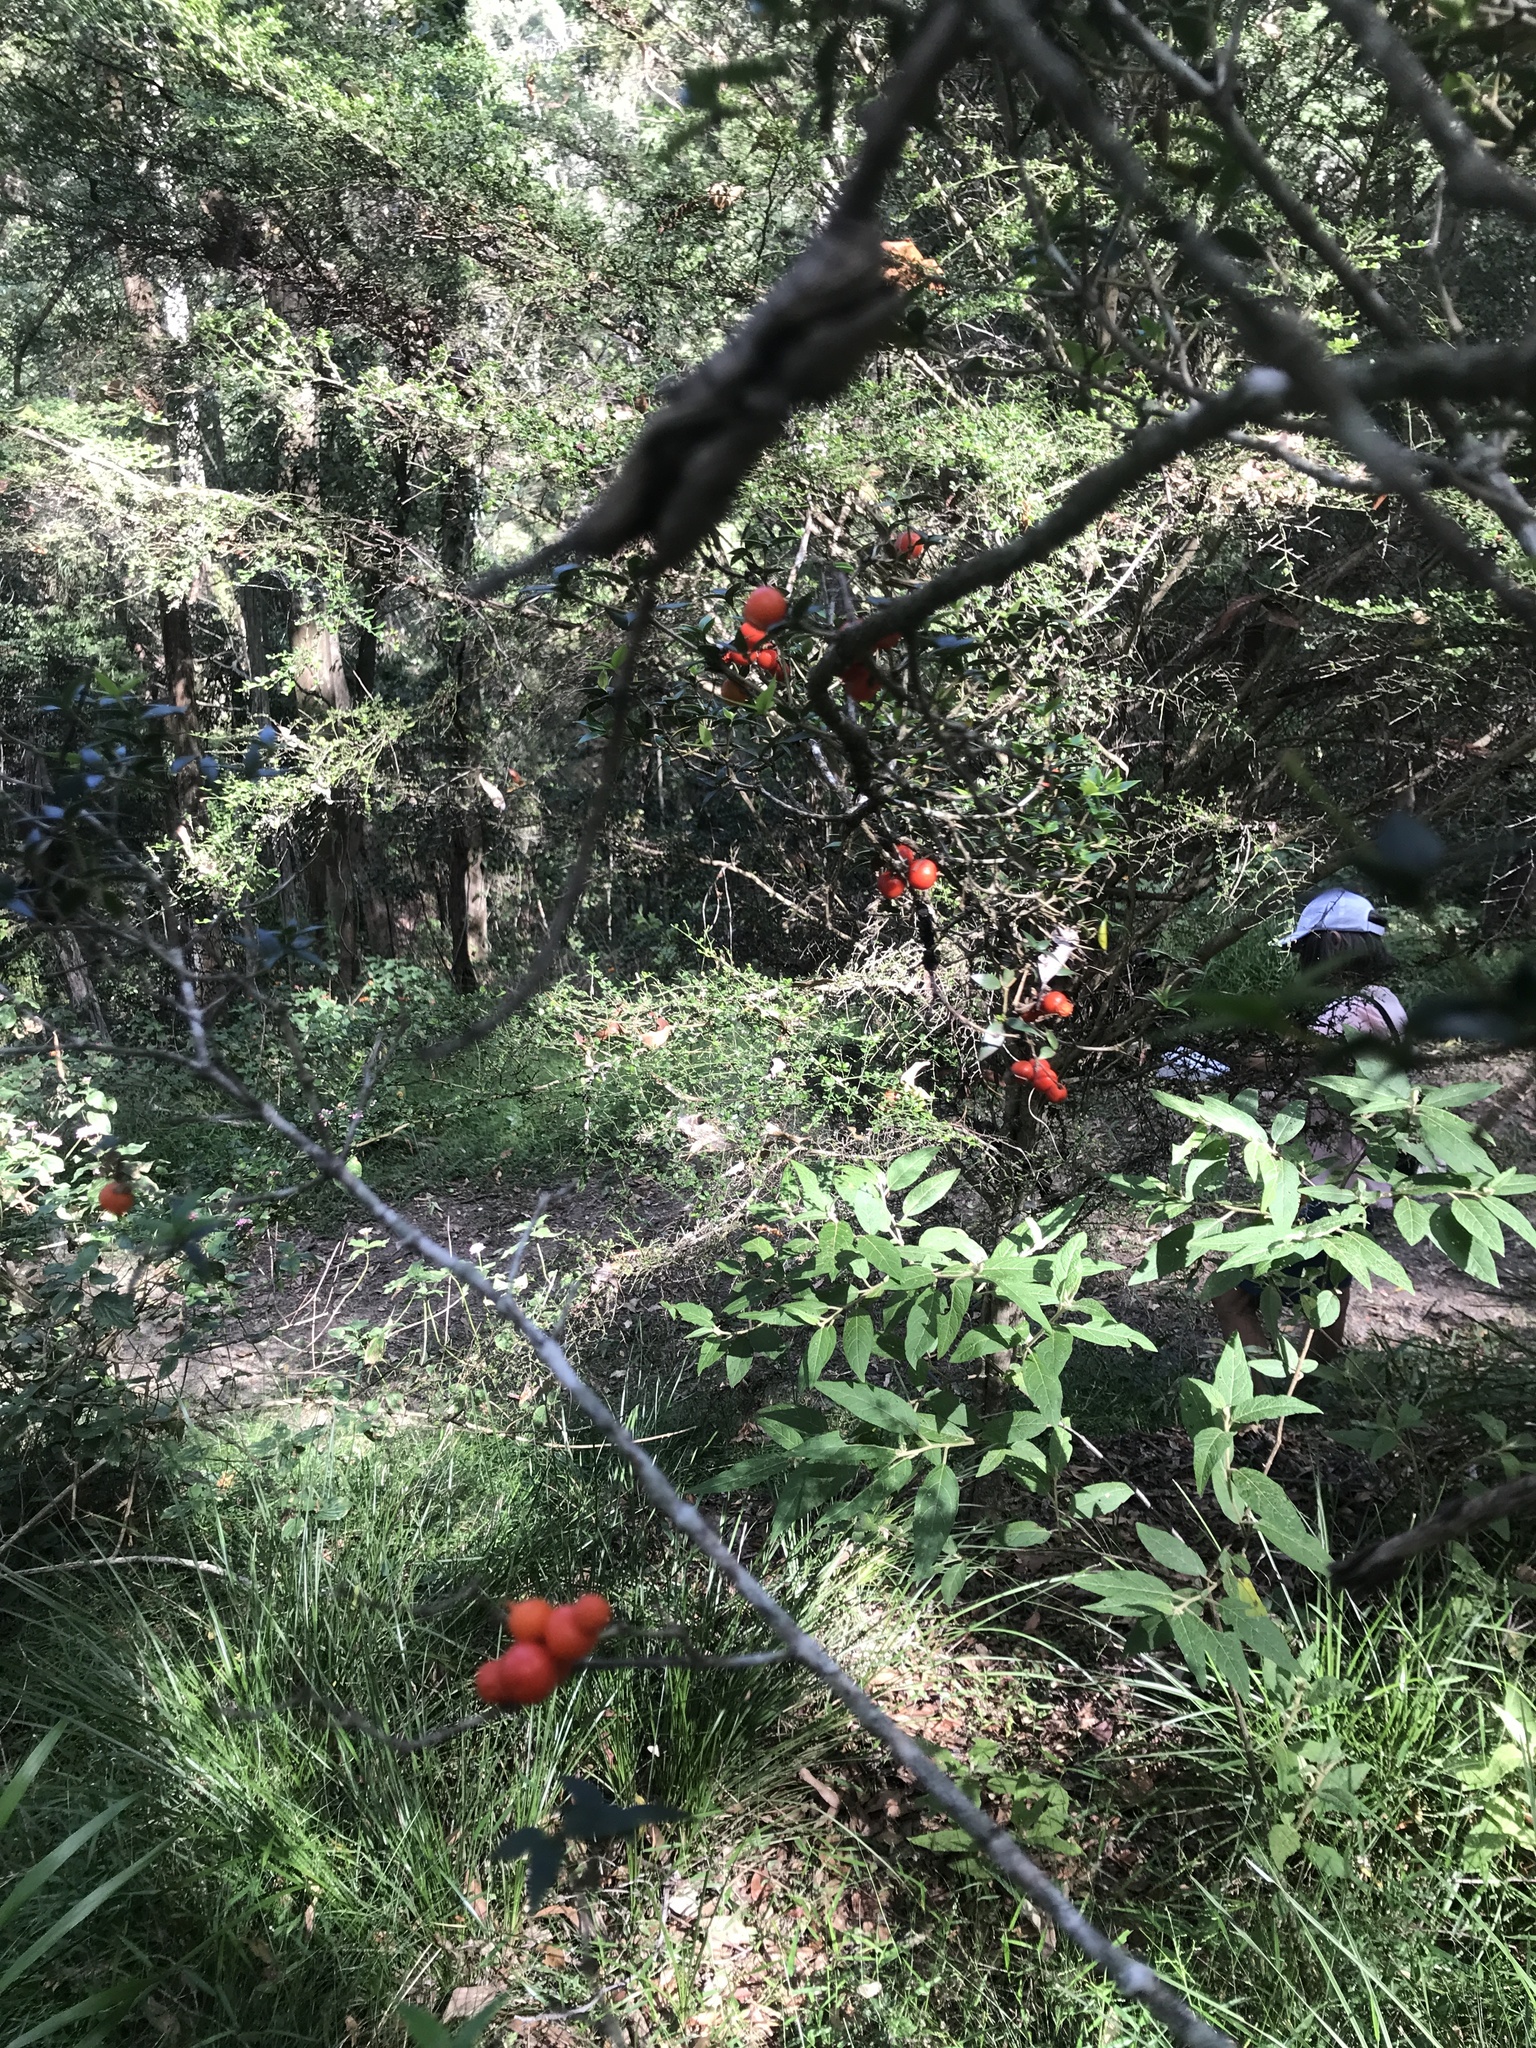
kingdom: Plantae
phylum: Tracheophyta
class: Magnoliopsida
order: Gentianales
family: Apocynaceae
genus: Alyxia
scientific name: Alyxia ruscifolia
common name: Chainfruit
